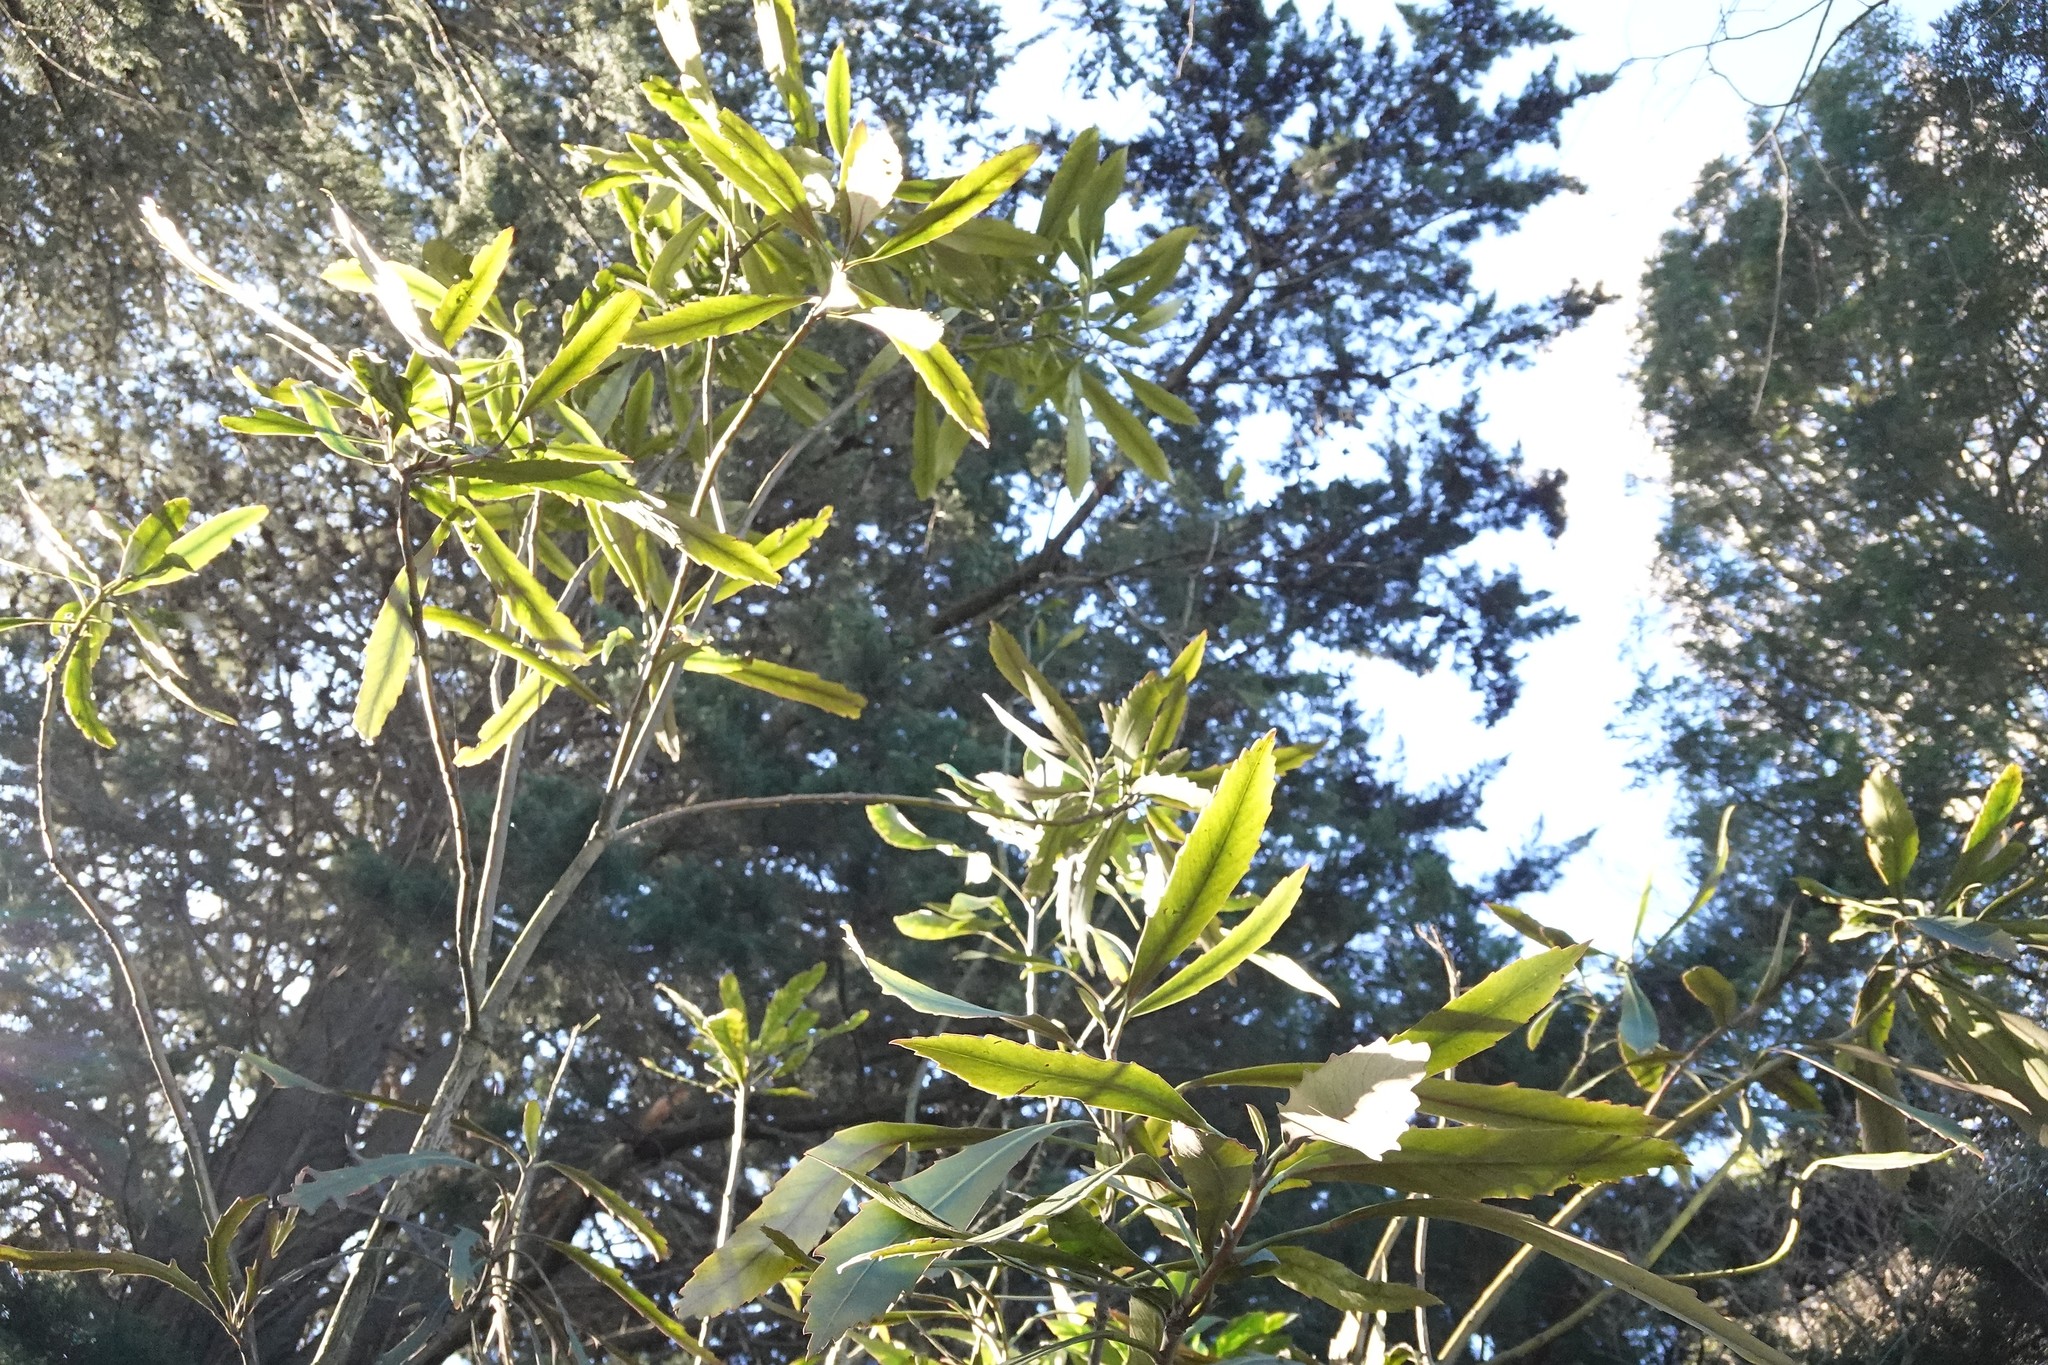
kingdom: Plantae
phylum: Tracheophyta
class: Magnoliopsida
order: Apiales
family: Araliaceae
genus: Pseudopanax
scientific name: Pseudopanax
